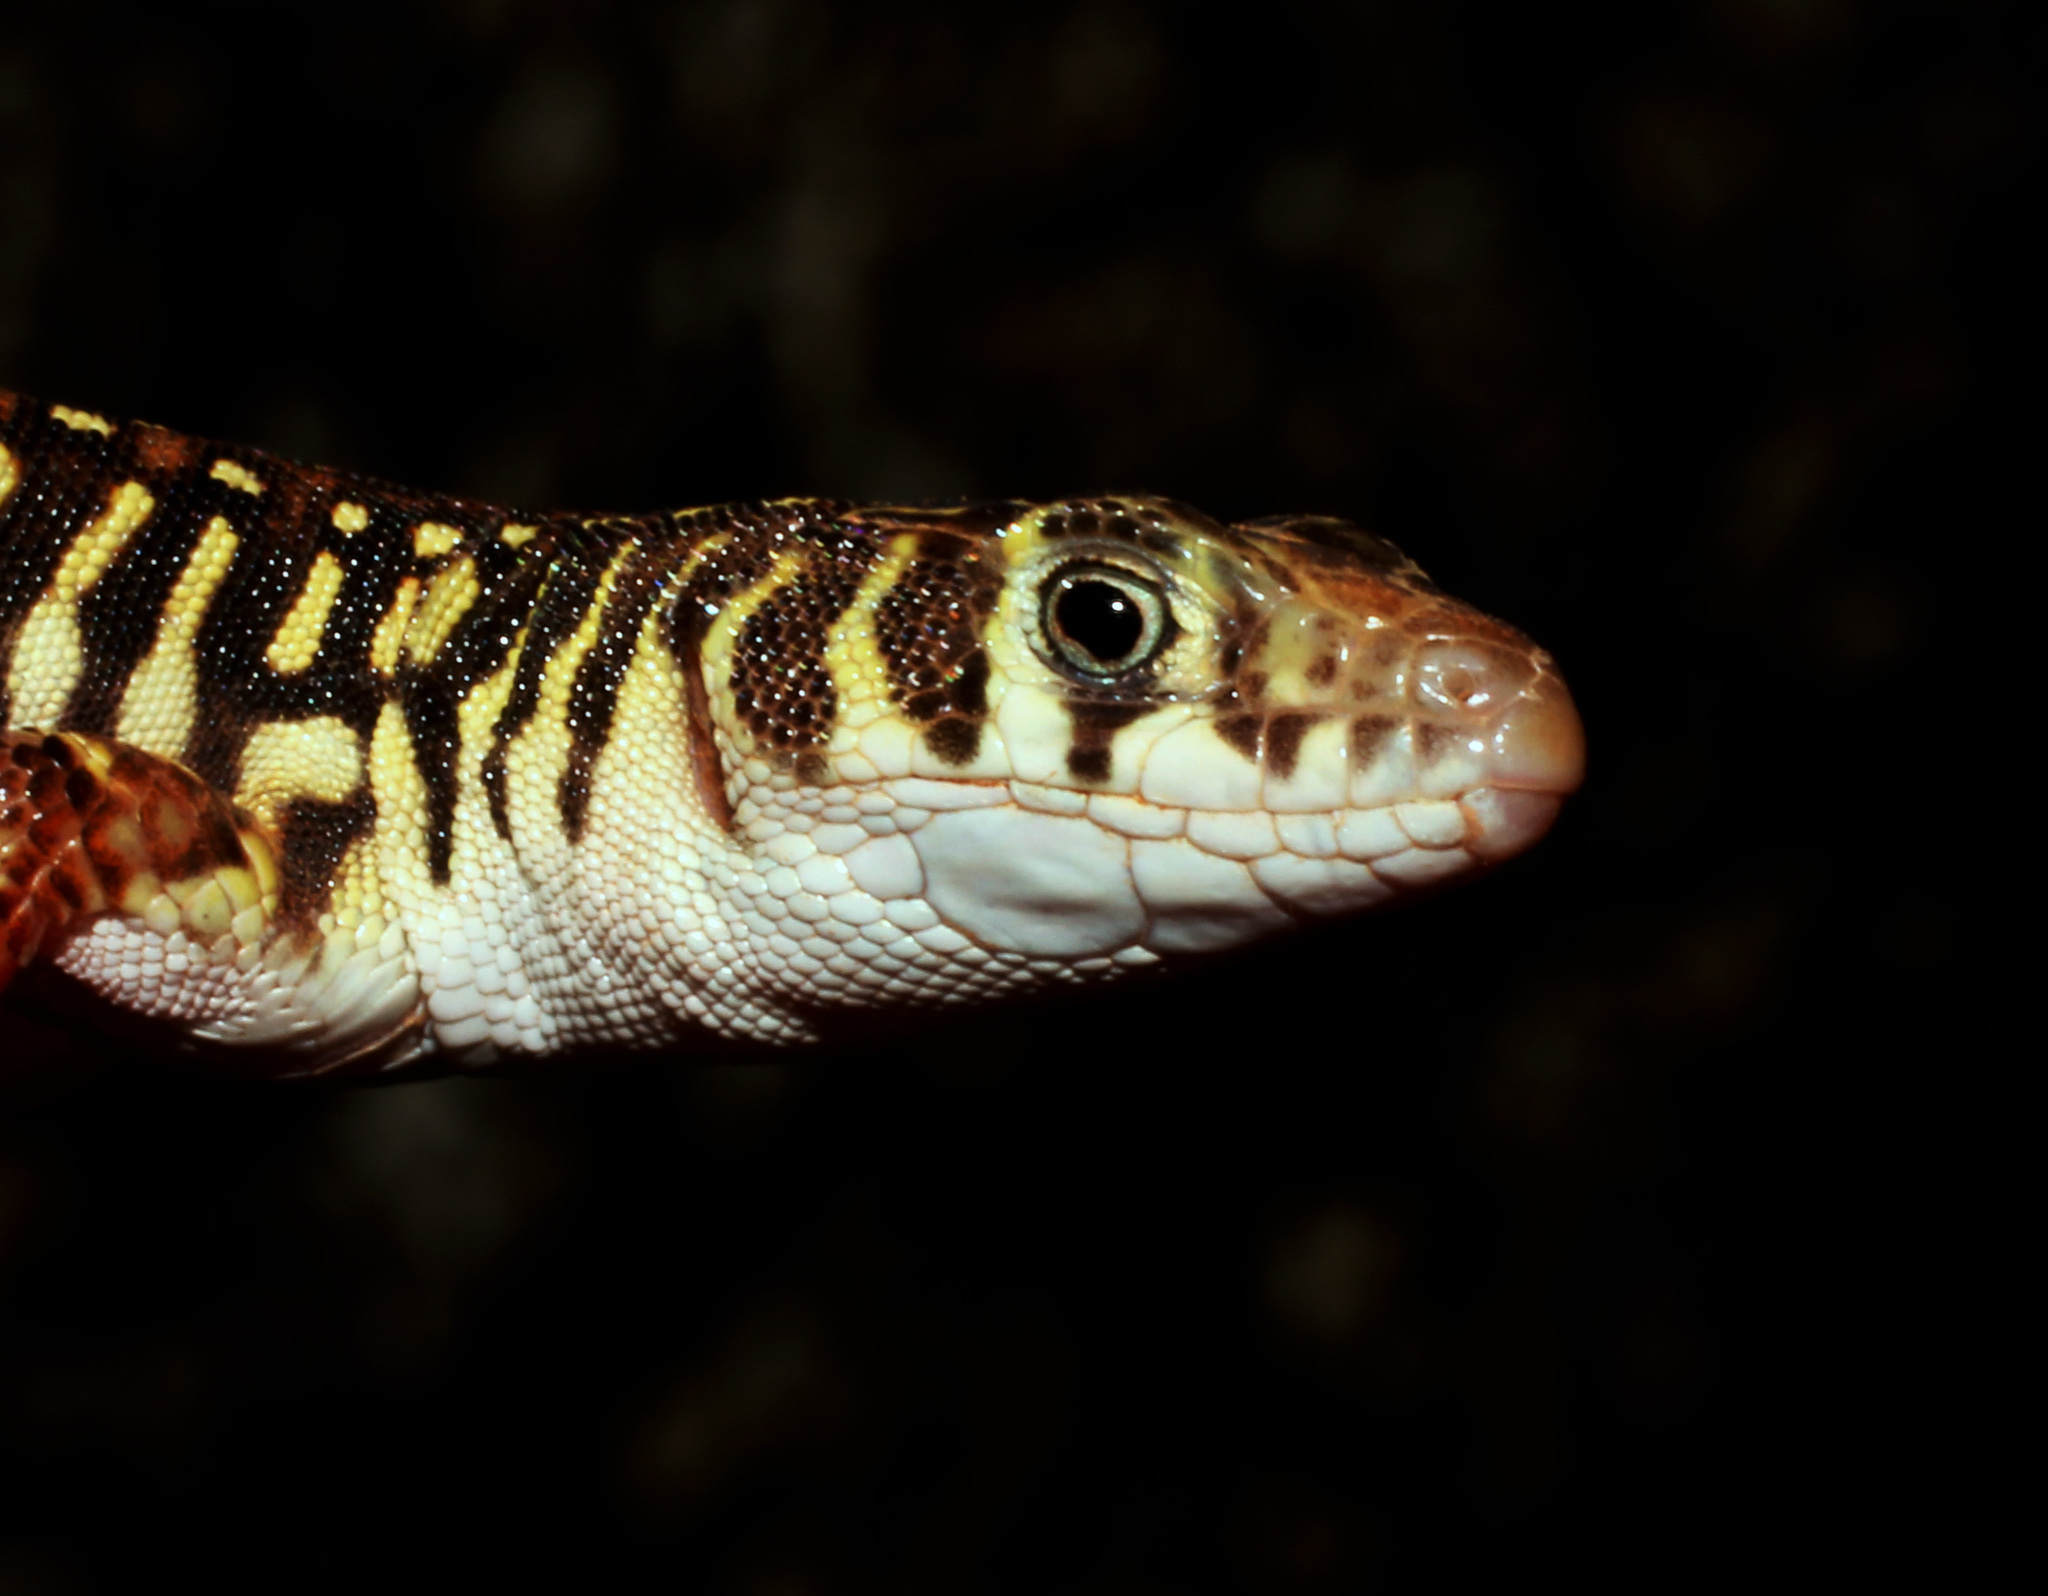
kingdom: Animalia
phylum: Chordata
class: Squamata
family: Lacertidae
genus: Nucras
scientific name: Nucras intertexta
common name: Spotted sandveld lizard
